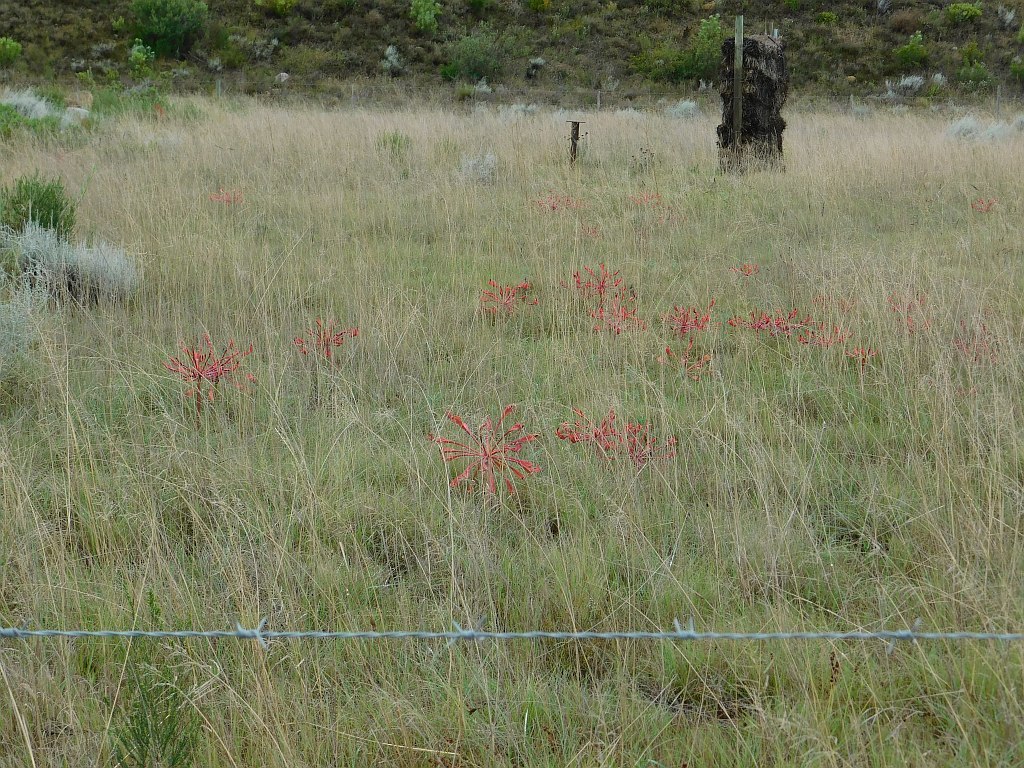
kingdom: Plantae
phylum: Tracheophyta
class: Liliopsida
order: Asparagales
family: Amaryllidaceae
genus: Brunsvigia
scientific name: Brunsvigia orientalis
